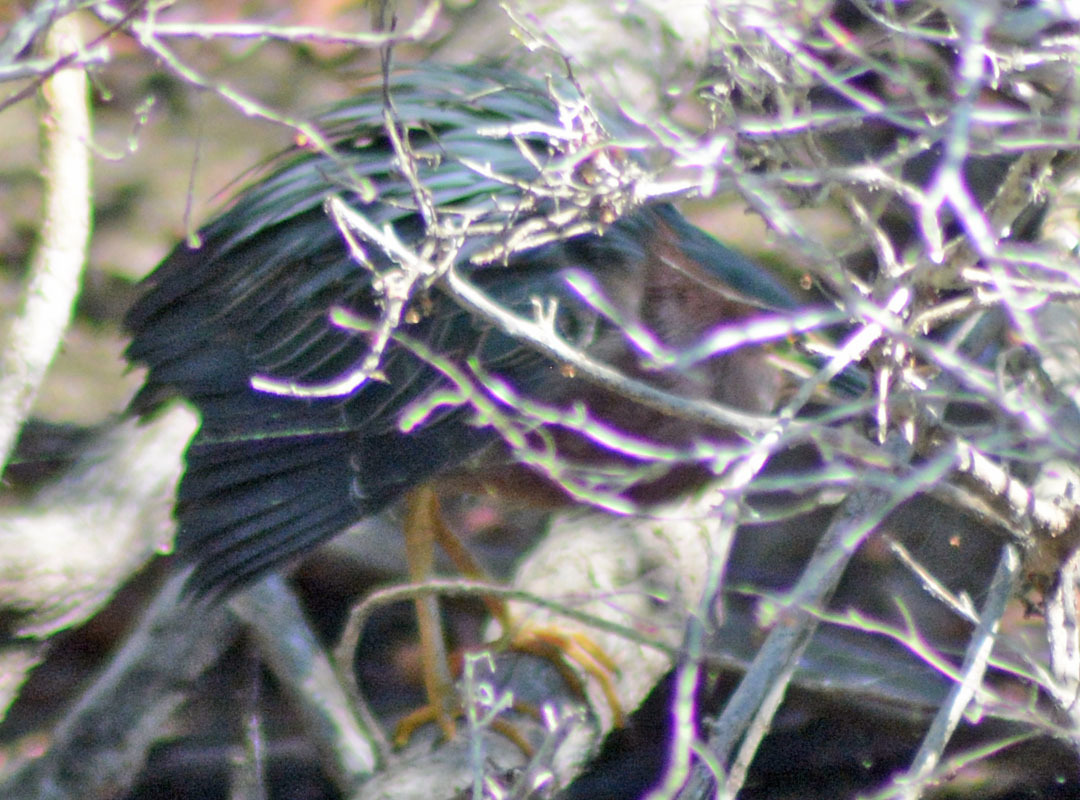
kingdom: Animalia
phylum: Chordata
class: Aves
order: Pelecaniformes
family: Ardeidae
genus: Butorides
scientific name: Butorides virescens
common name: Green heron
